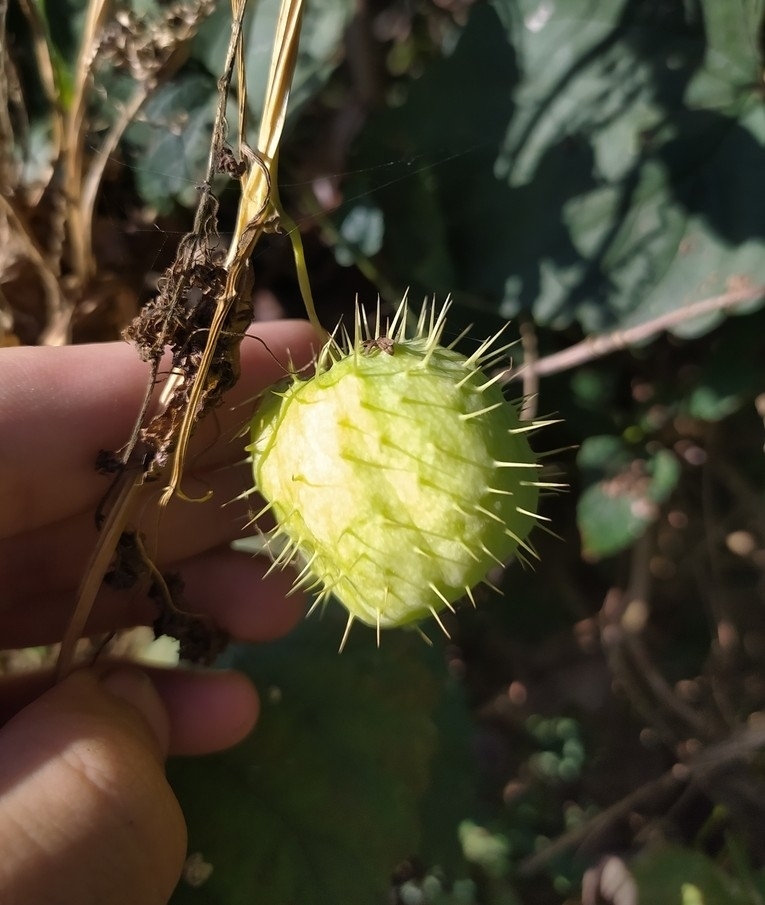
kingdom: Plantae
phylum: Tracheophyta
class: Magnoliopsida
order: Cucurbitales
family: Cucurbitaceae
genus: Echinocystis
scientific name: Echinocystis lobata
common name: Wild cucumber
